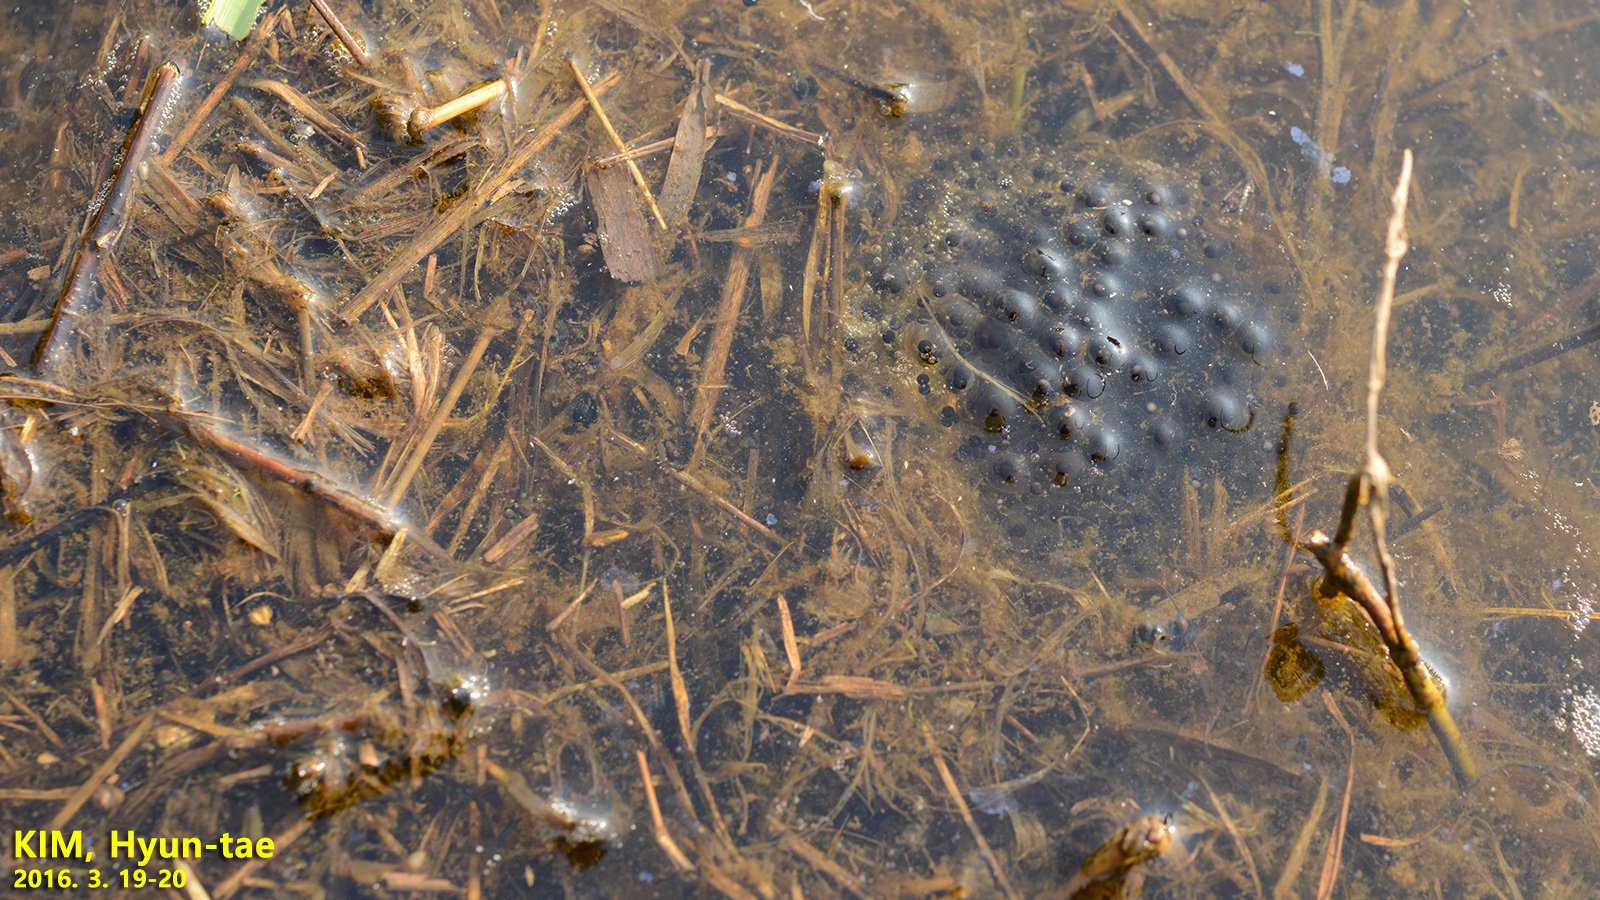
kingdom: Animalia
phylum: Chordata
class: Amphibia
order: Anura
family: Ranidae
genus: Rana
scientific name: Rana coreana
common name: Korean brown frog
